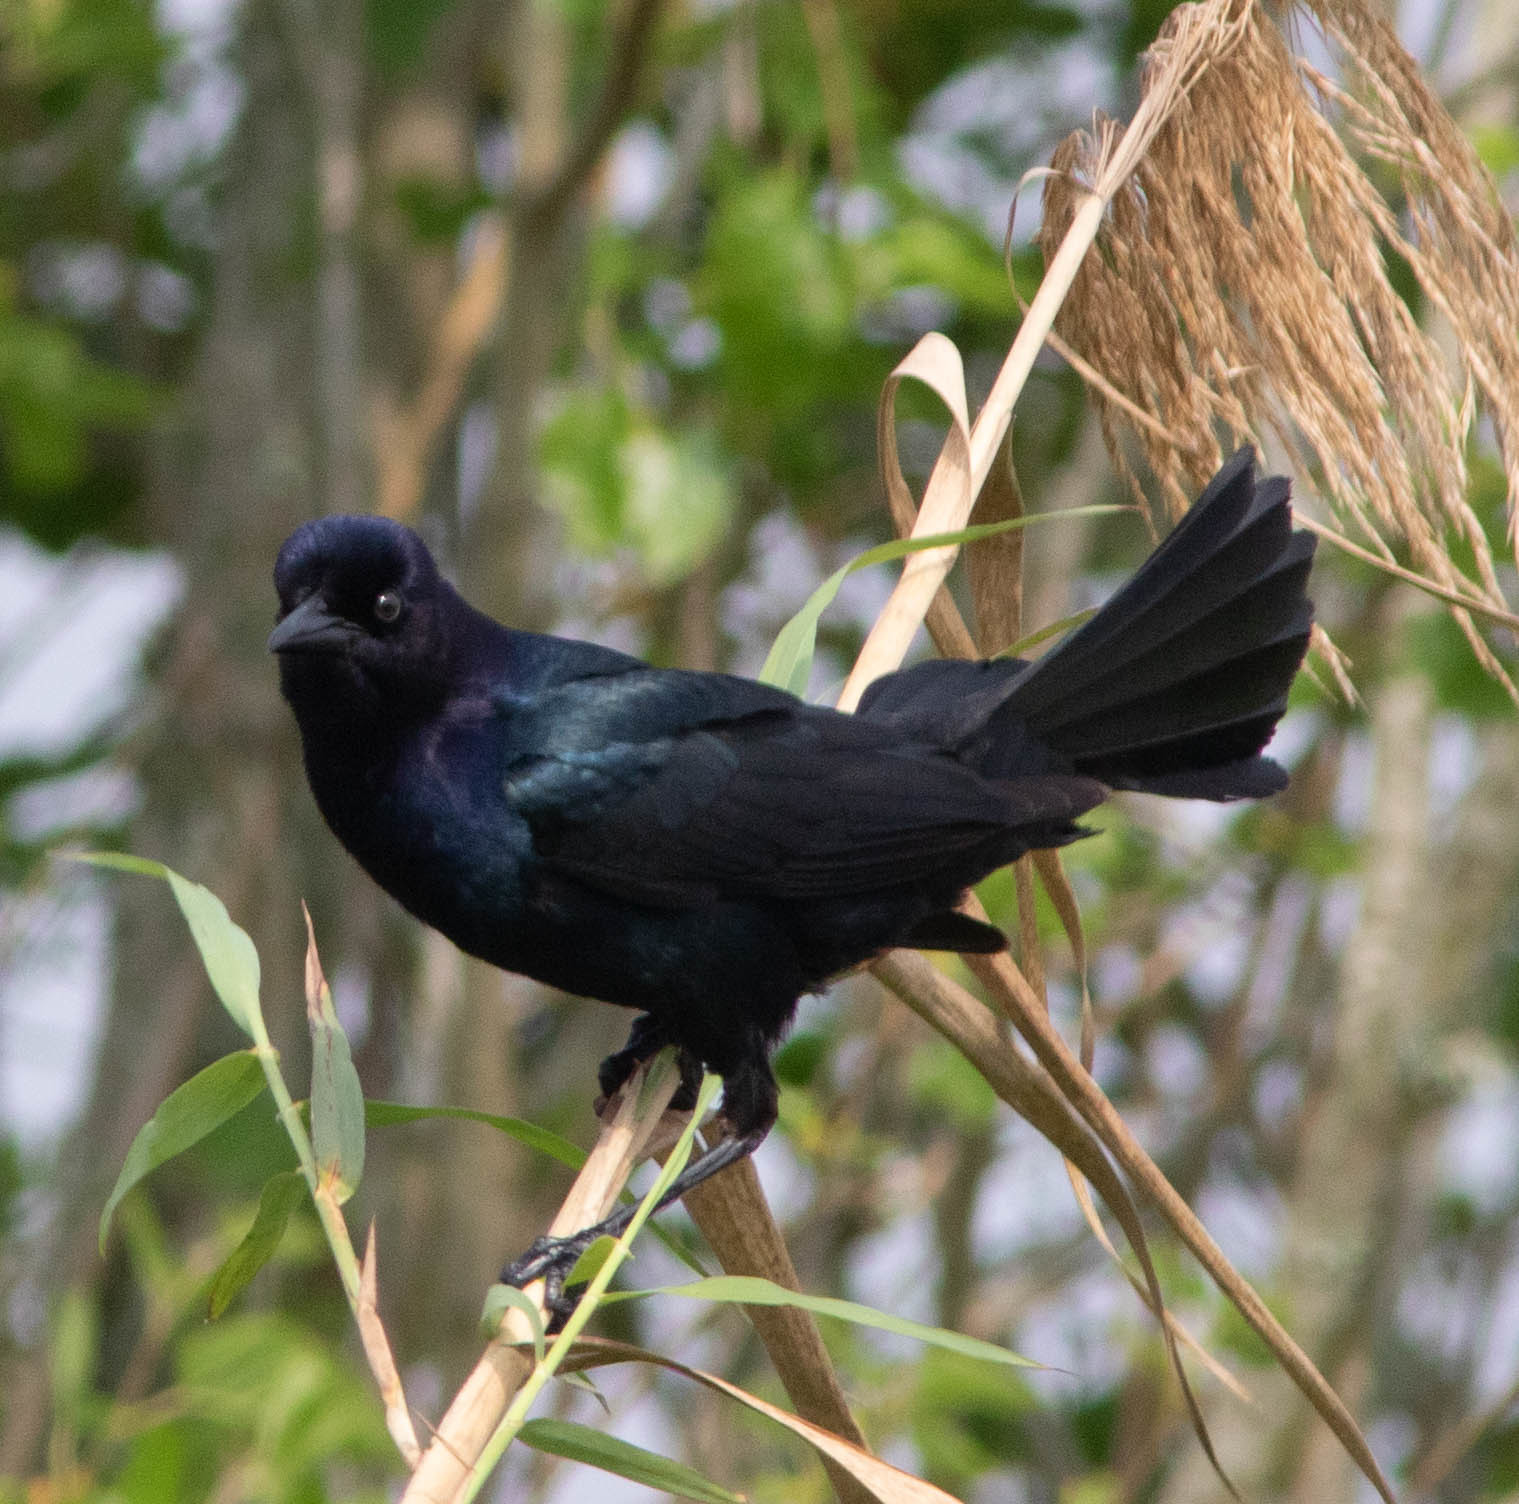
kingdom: Animalia
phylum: Chordata
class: Aves
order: Passeriformes
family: Icteridae
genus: Quiscalus
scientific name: Quiscalus major
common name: Boat-tailed grackle
